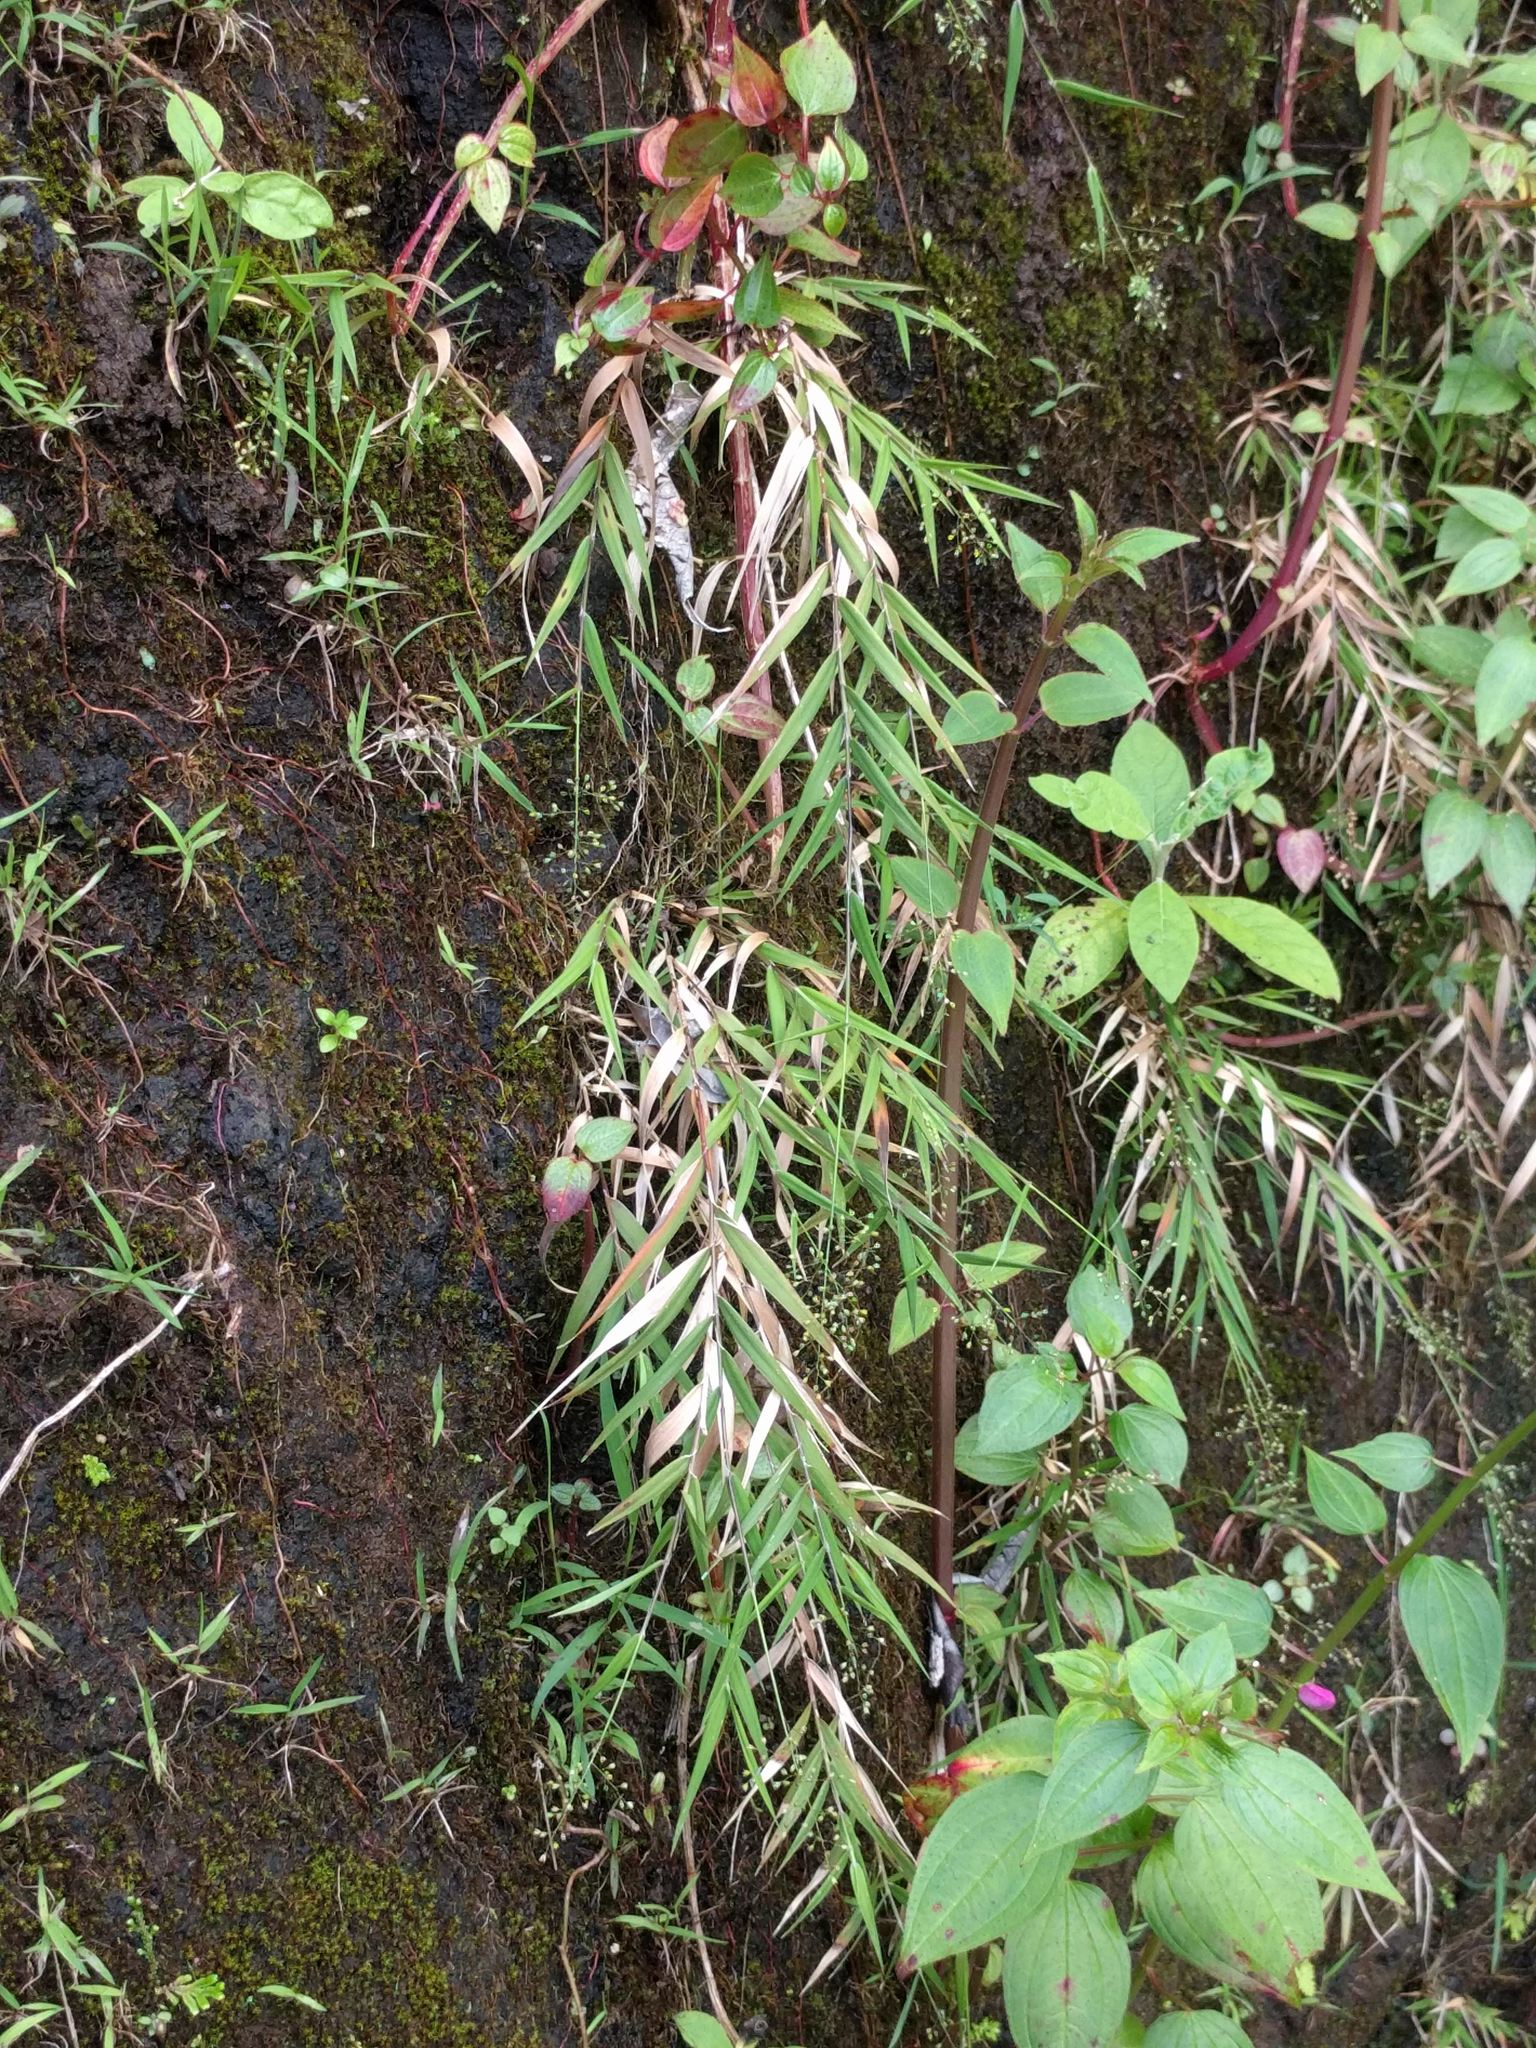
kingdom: Plantae
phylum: Tracheophyta
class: Liliopsida
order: Poales
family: Poaceae
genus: Isachne
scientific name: Isachne pallens
